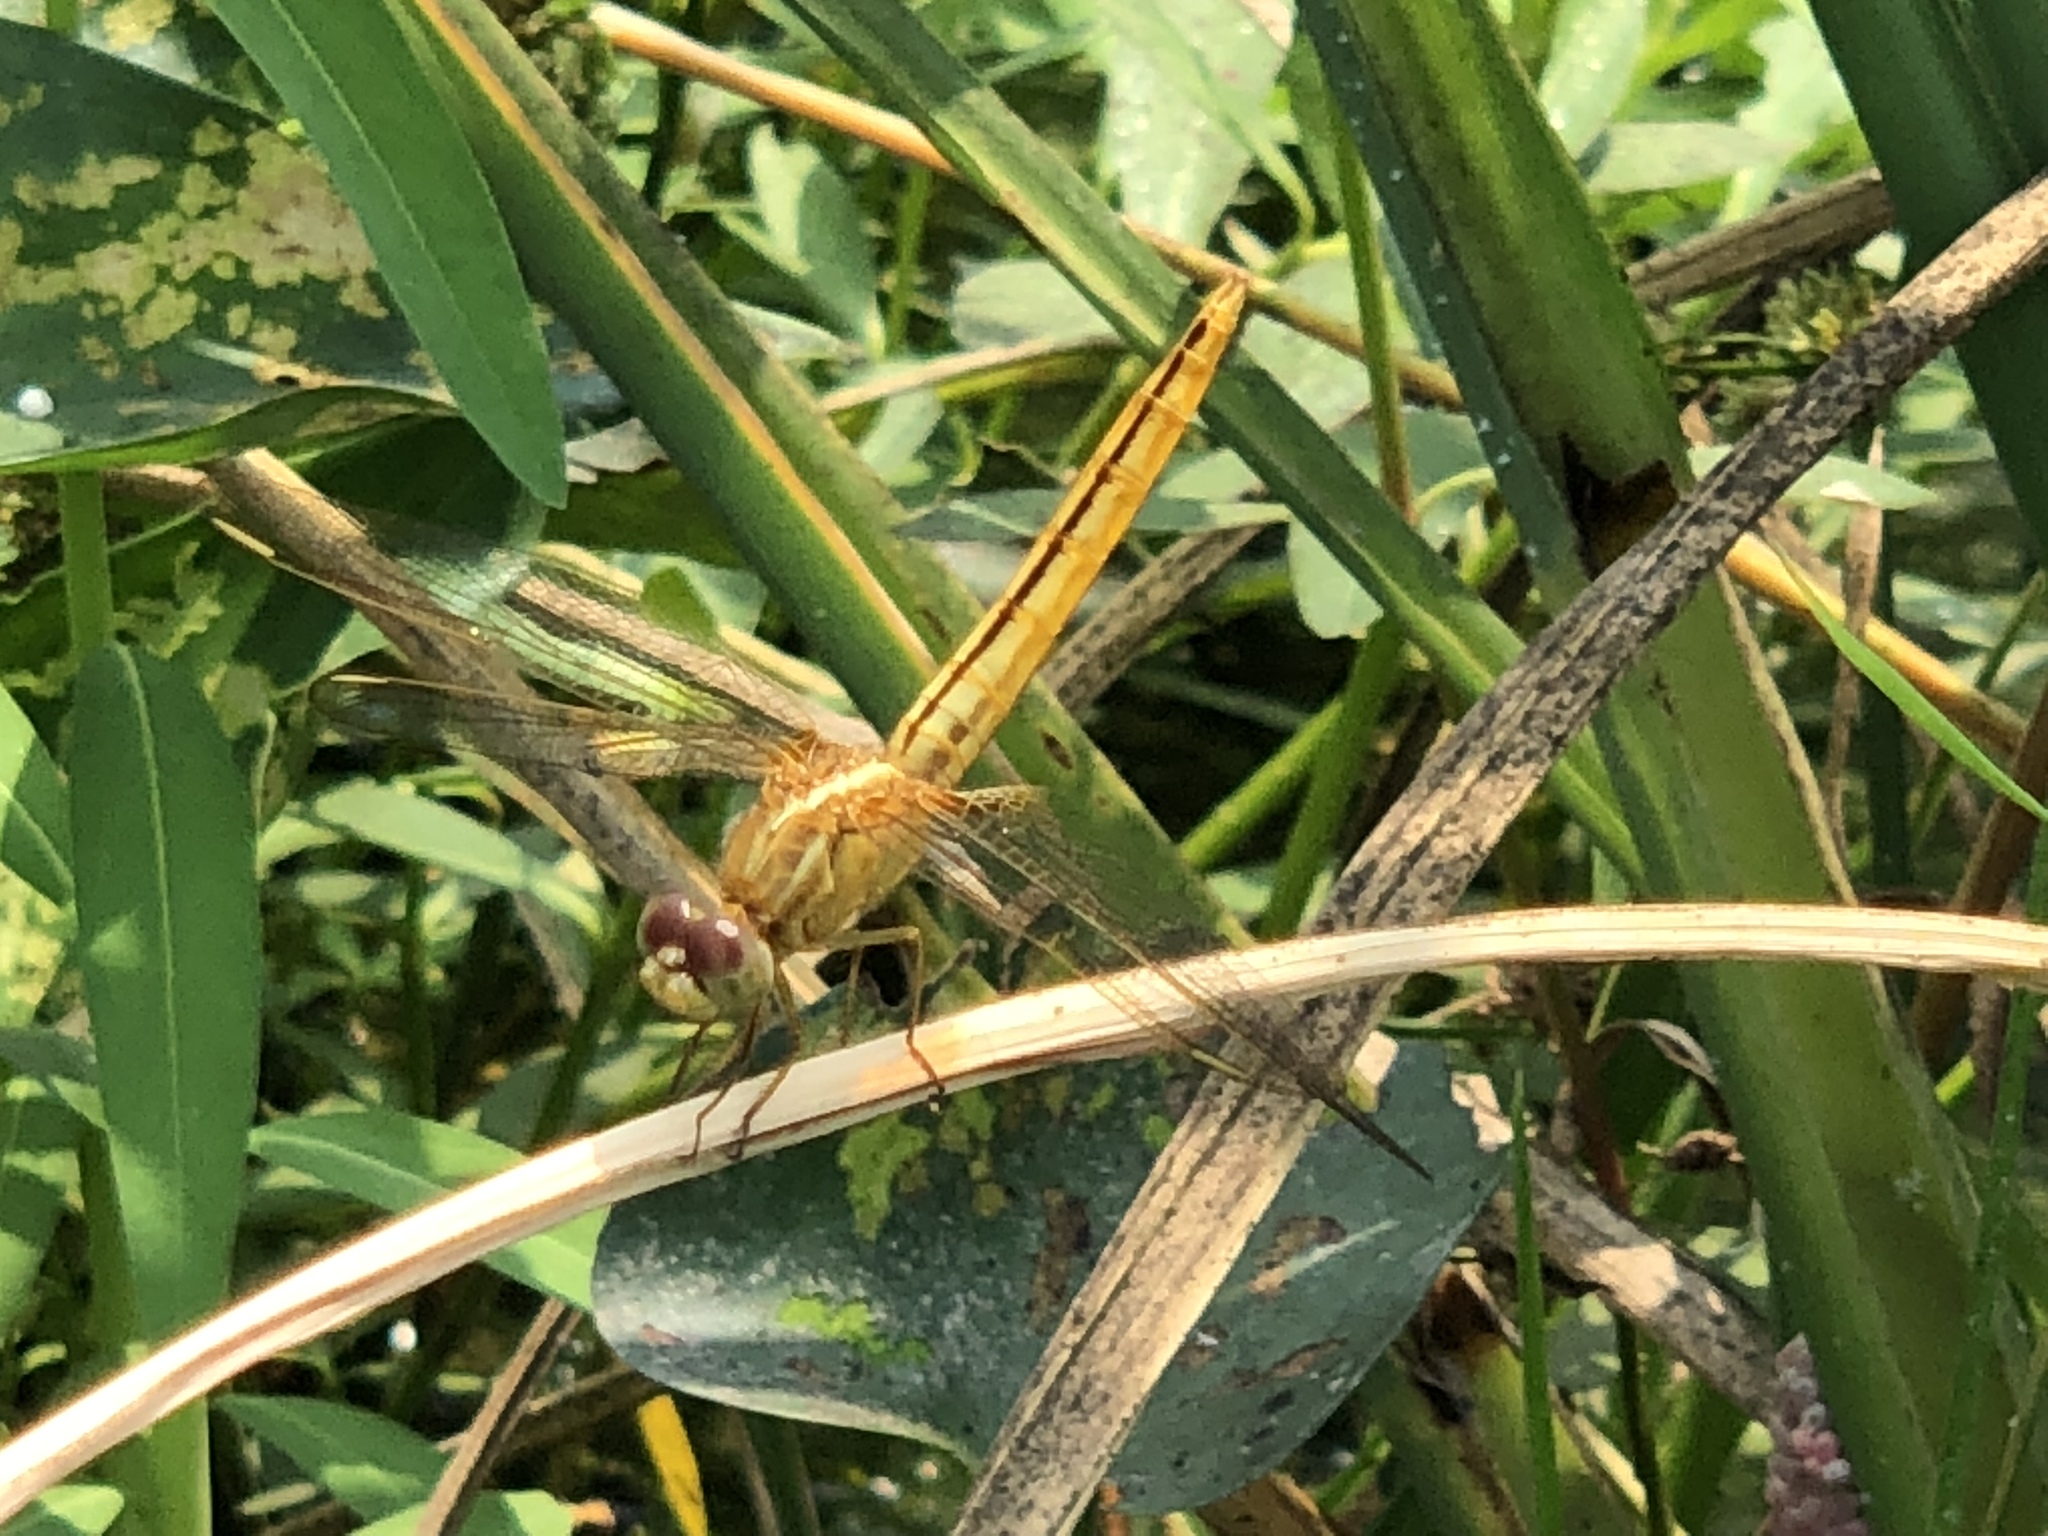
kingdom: Animalia
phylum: Arthropoda
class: Insecta
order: Odonata
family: Libellulidae
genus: Crocothemis
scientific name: Crocothemis servilia
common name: Scarlet skimmer
